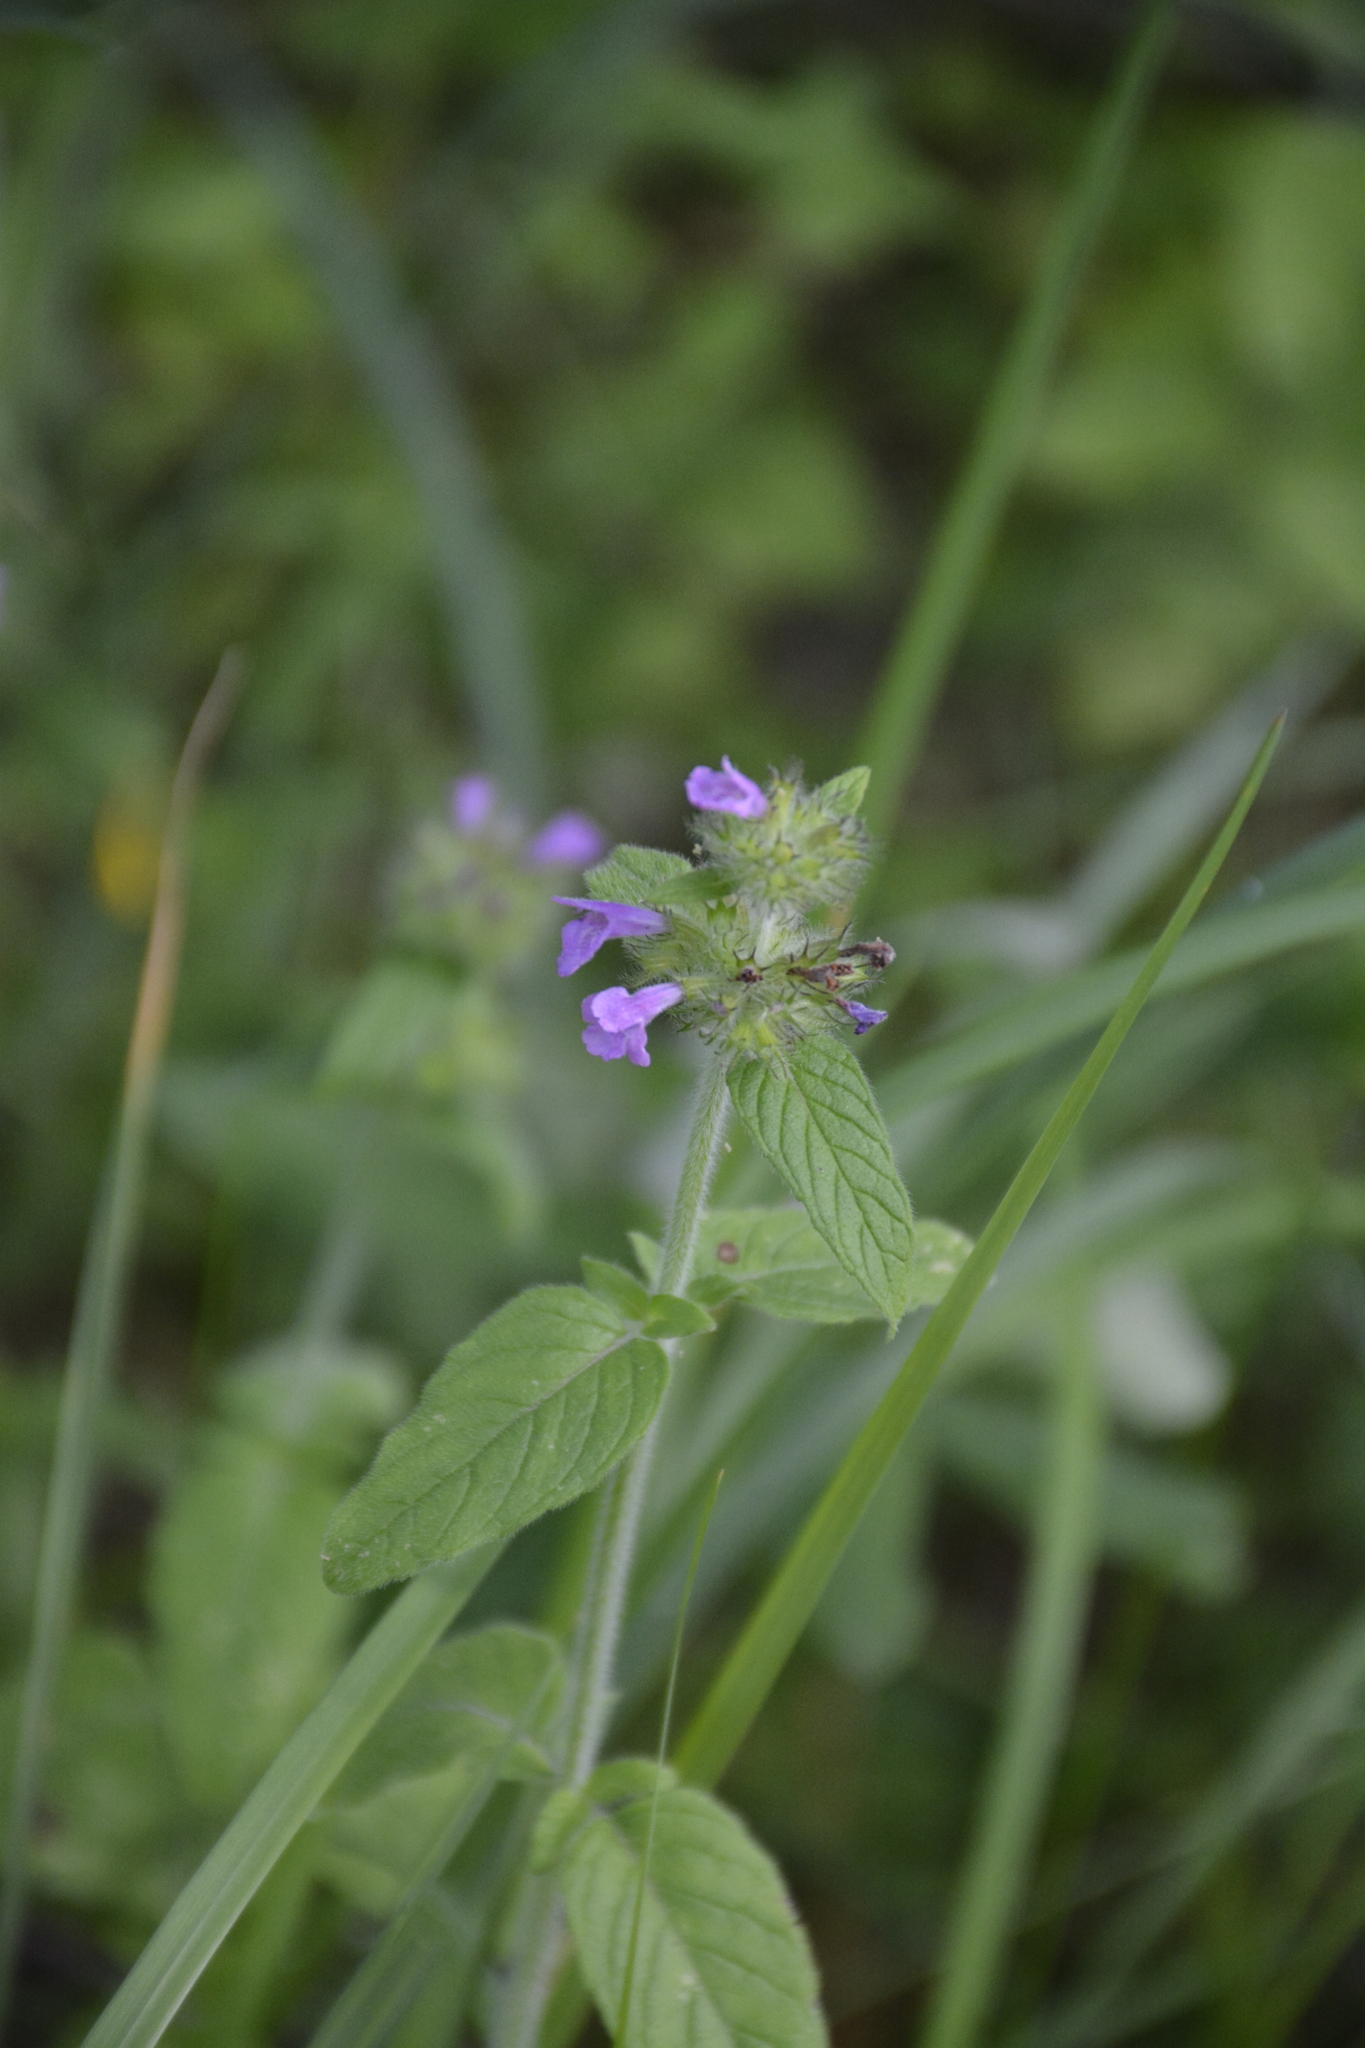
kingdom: Plantae
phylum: Tracheophyta
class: Magnoliopsida
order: Lamiales
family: Lamiaceae
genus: Clinopodium
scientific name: Clinopodium vulgare
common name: Wild basil
